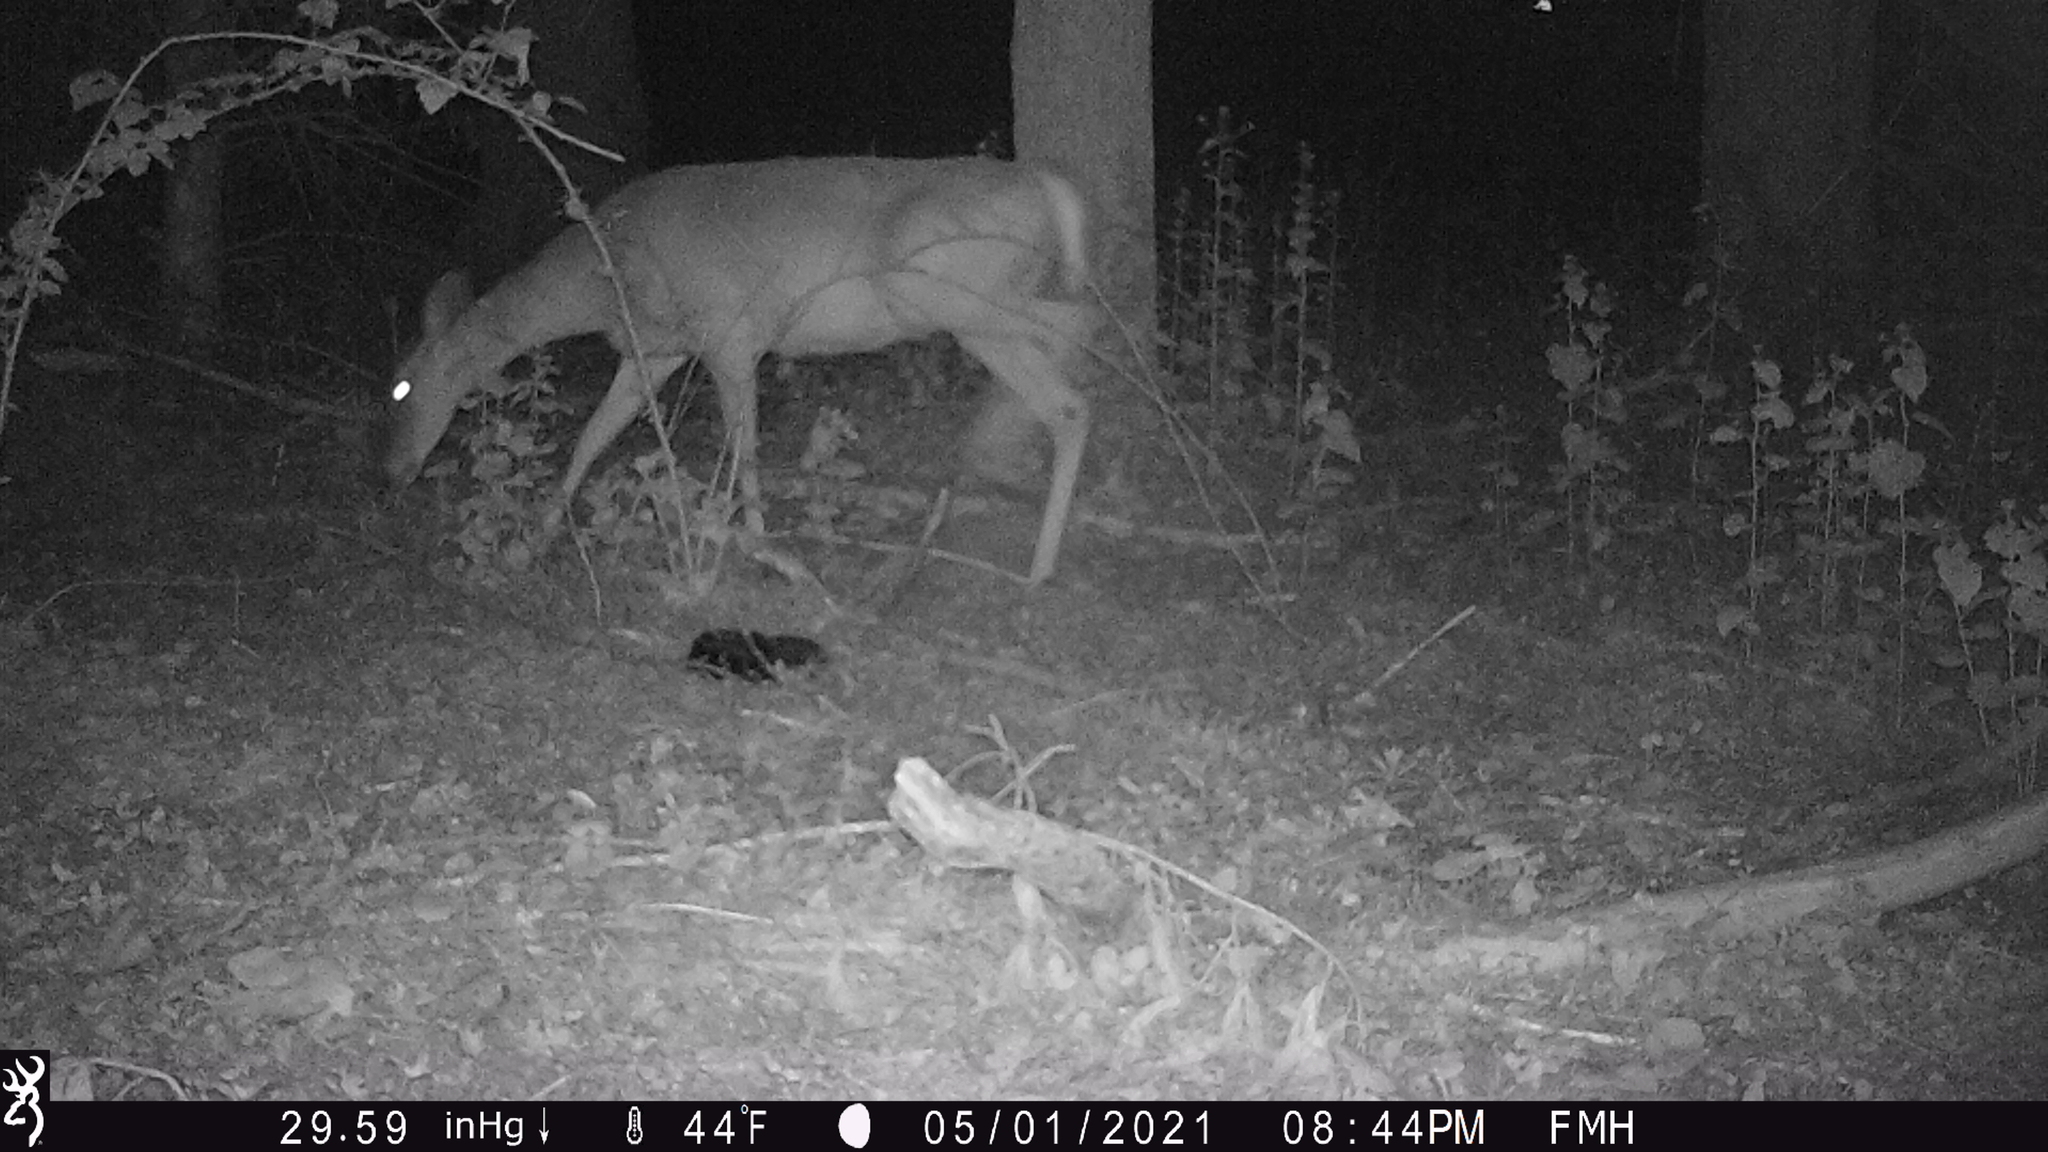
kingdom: Animalia
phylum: Chordata
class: Mammalia
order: Artiodactyla
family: Cervidae
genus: Odocoileus
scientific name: Odocoileus virginianus
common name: White-tailed deer
